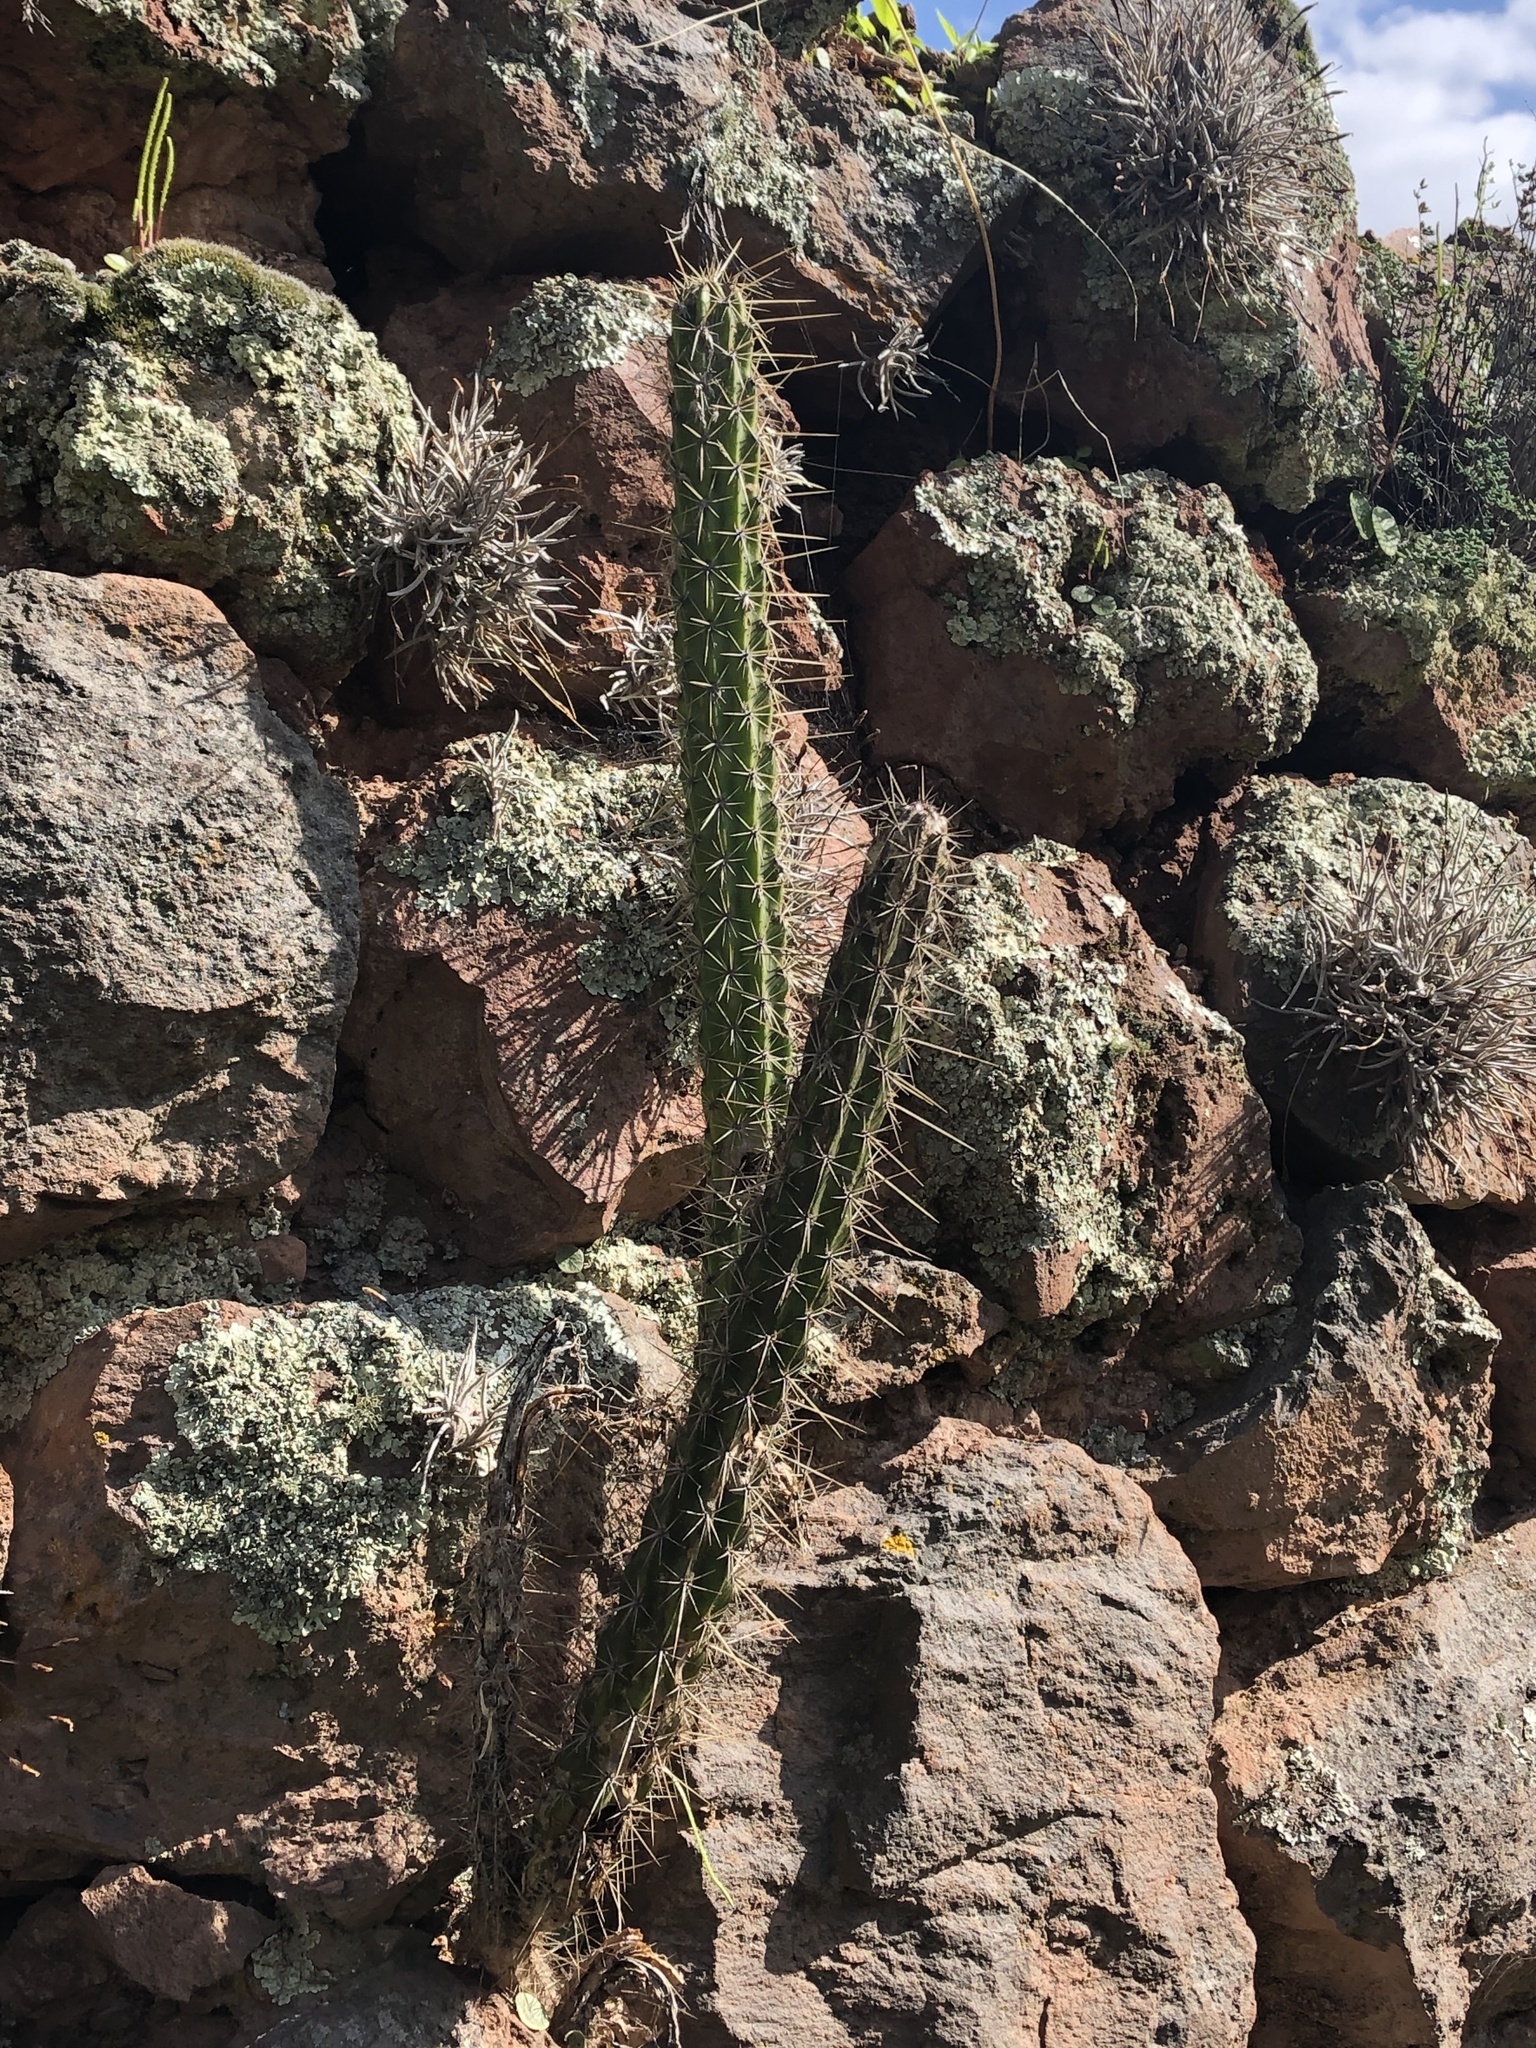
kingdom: Plantae
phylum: Tracheophyta
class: Magnoliopsida
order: Caryophyllales
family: Cactaceae
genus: Corryocactus
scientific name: Corryocactus erectus
